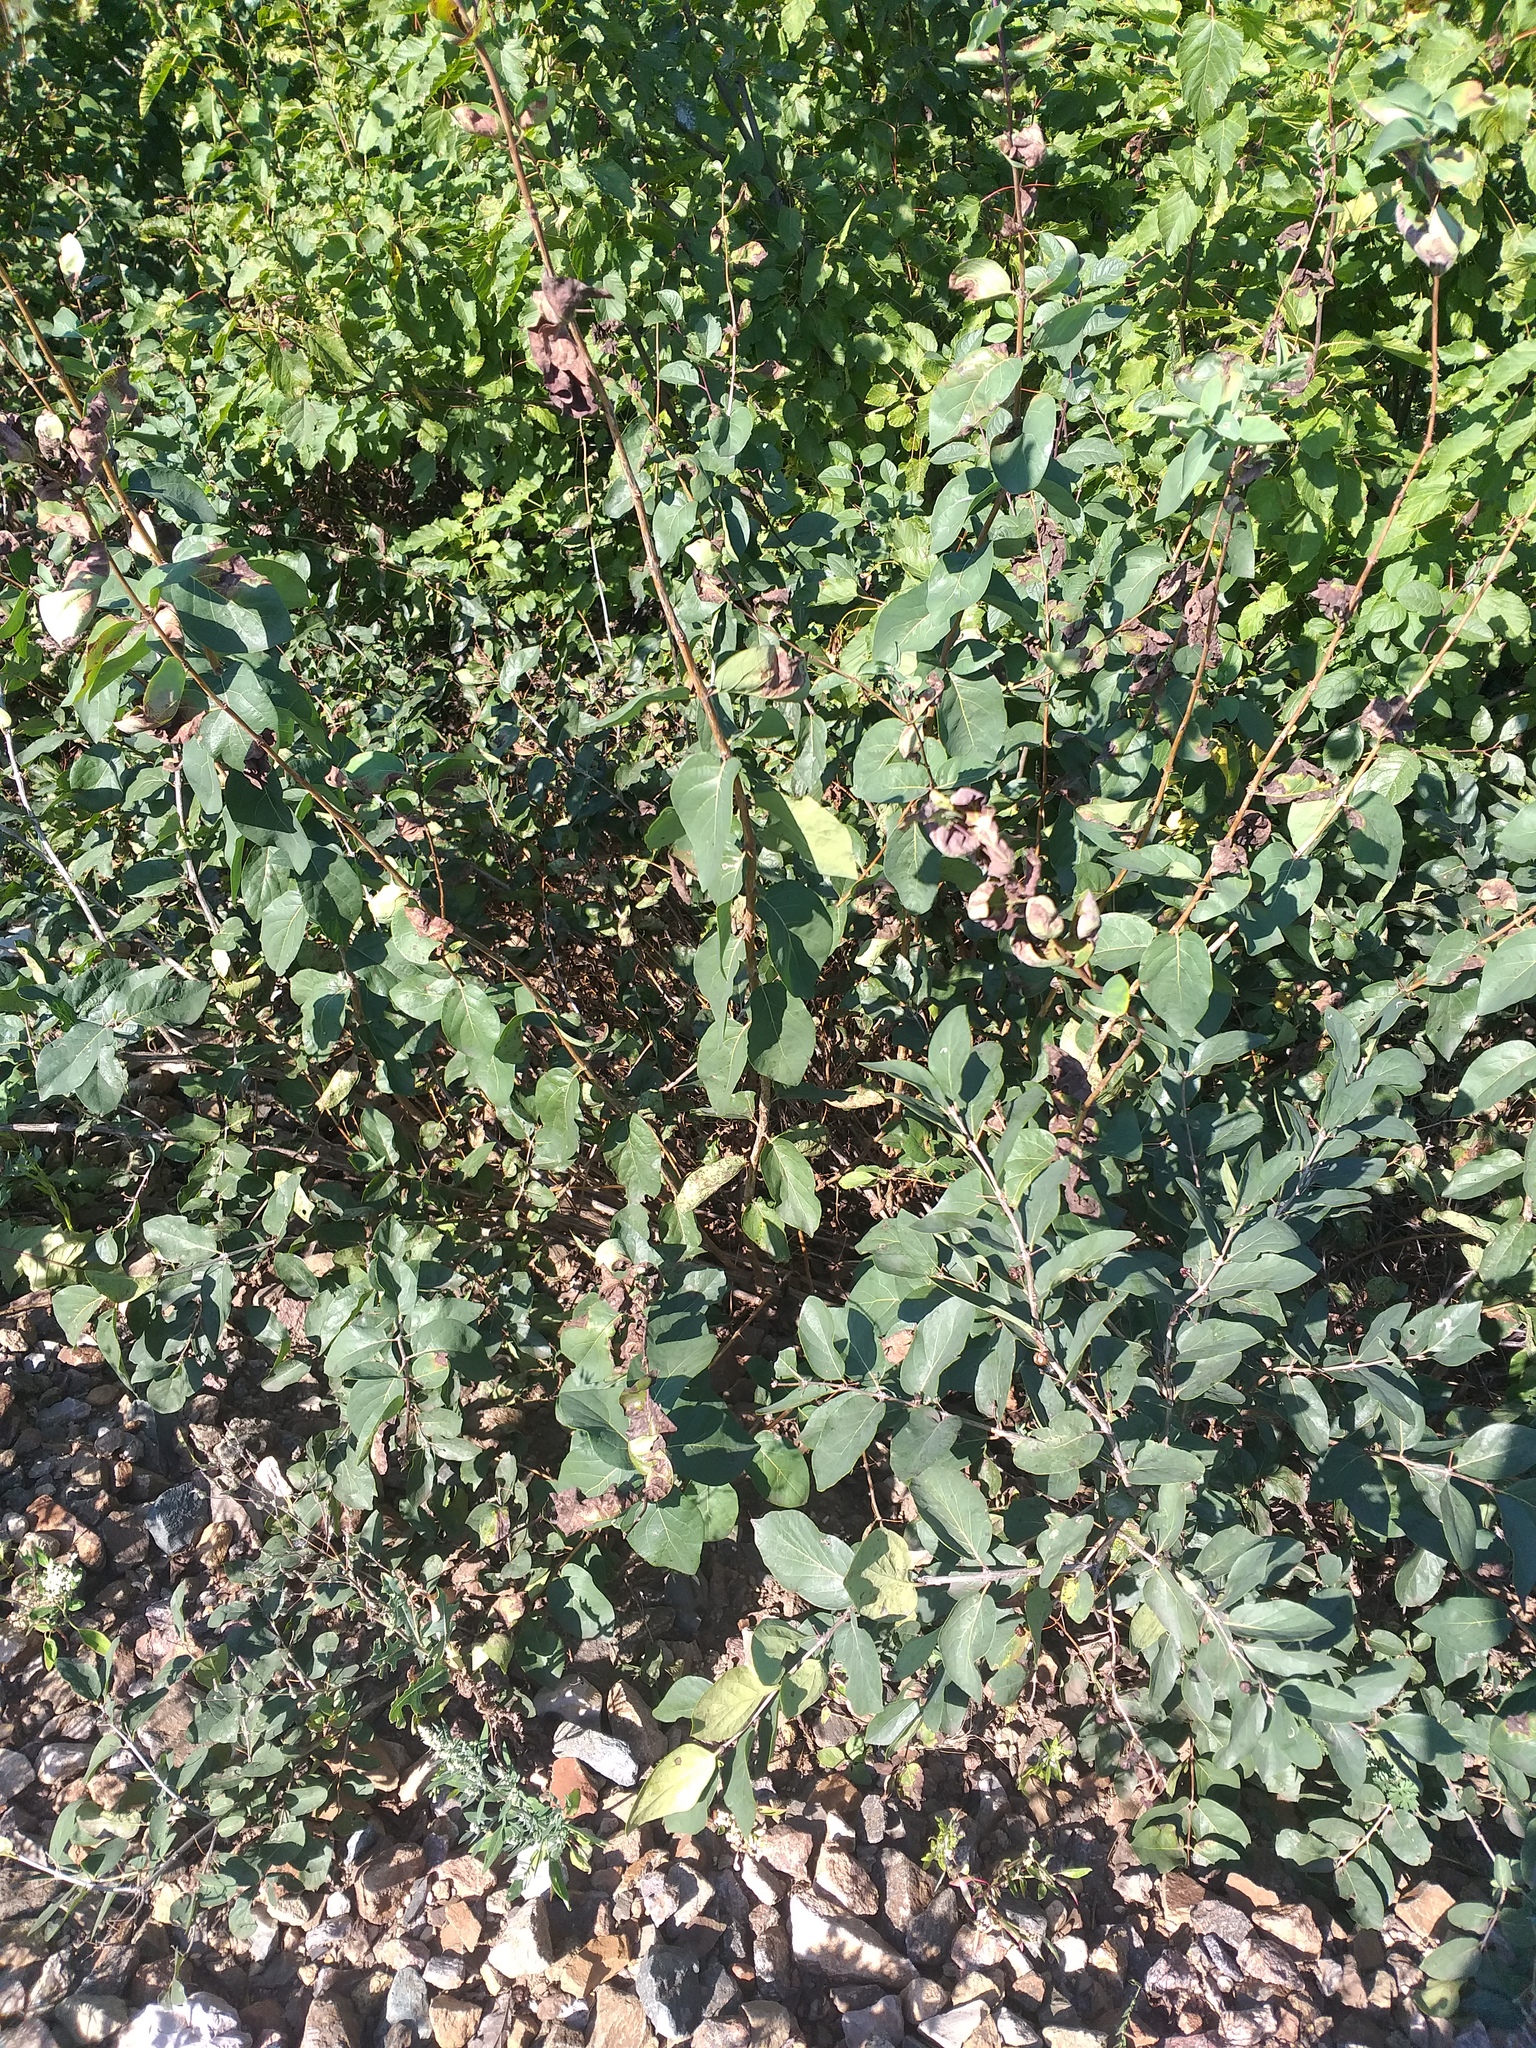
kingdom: Plantae
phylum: Tracheophyta
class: Magnoliopsida
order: Dipsacales
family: Caprifoliaceae
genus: Lonicera
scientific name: Lonicera tatarica
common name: Tatarian honeysuckle
